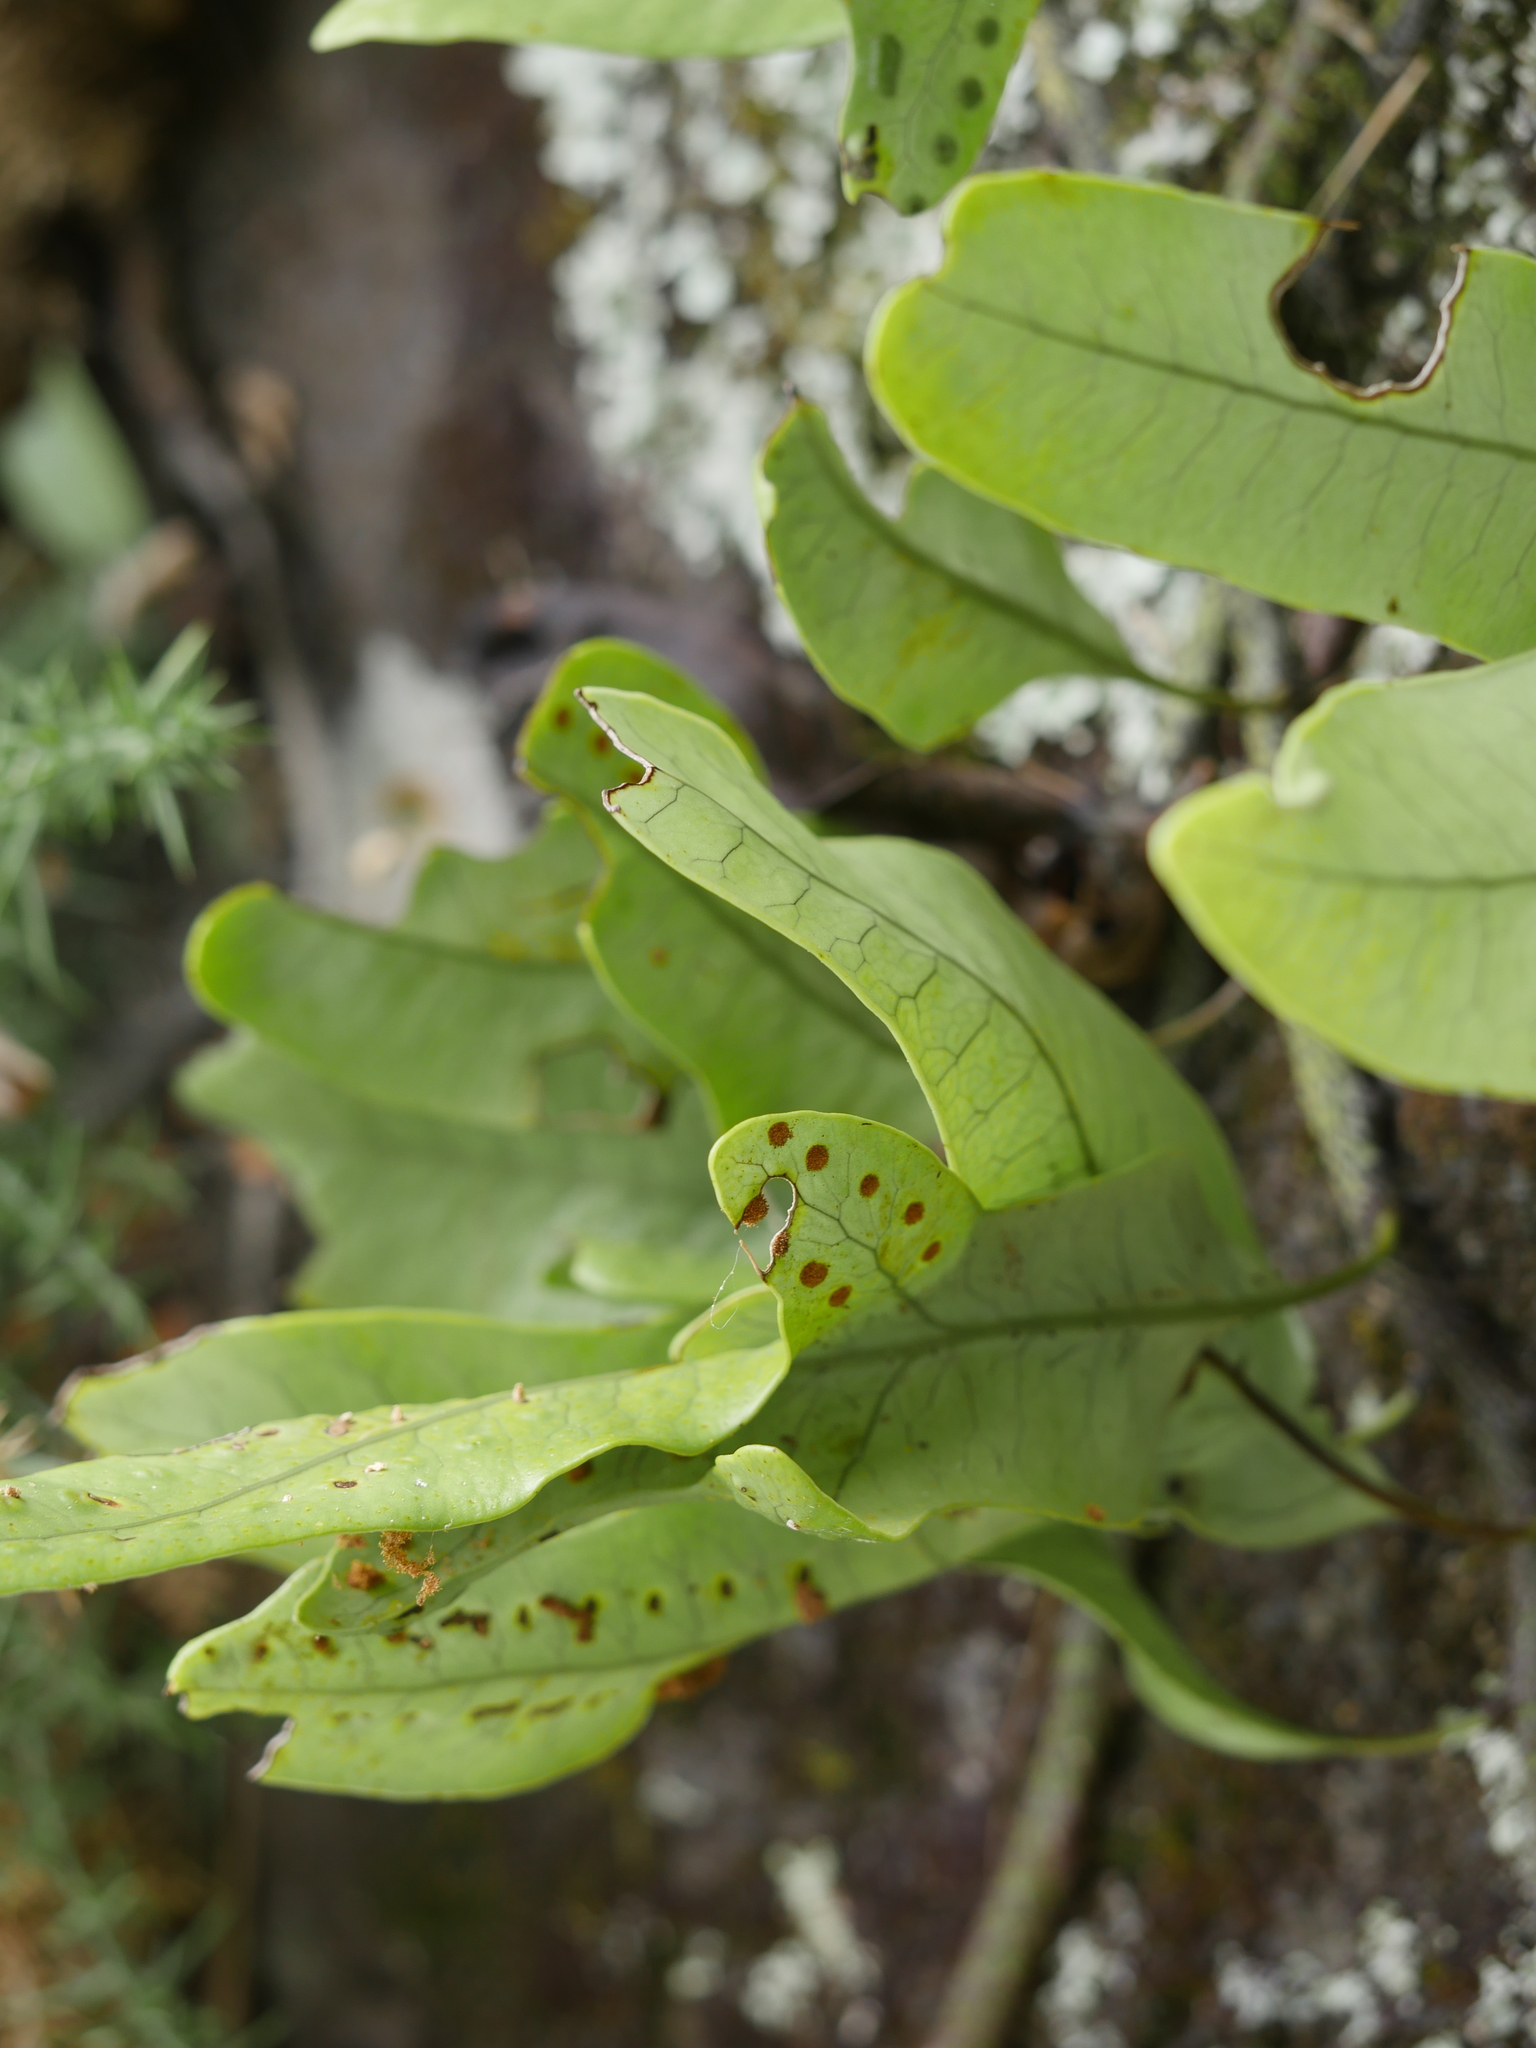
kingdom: Plantae
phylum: Tracheophyta
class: Polypodiopsida
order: Polypodiales
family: Polypodiaceae
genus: Lecanopteris
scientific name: Lecanopteris pustulata
